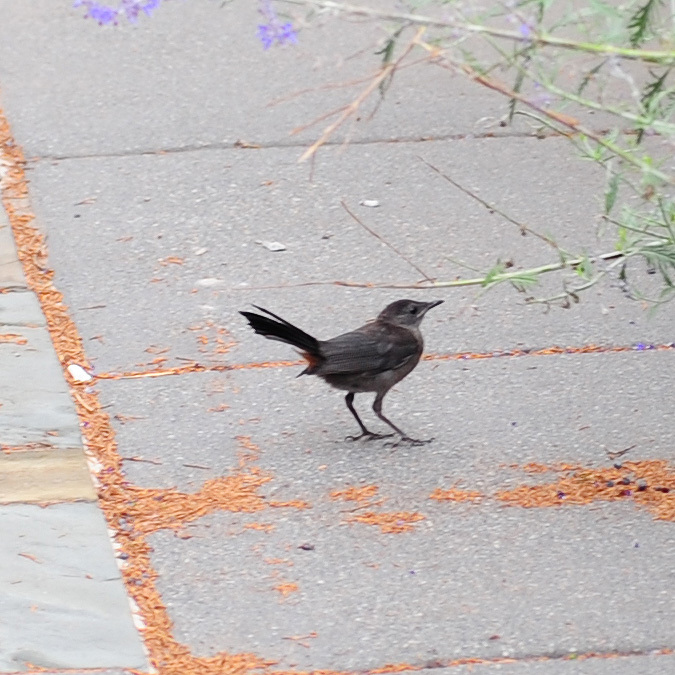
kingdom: Animalia
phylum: Chordata
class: Aves
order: Passeriformes
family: Mimidae
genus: Dumetella
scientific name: Dumetella carolinensis
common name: Gray catbird
